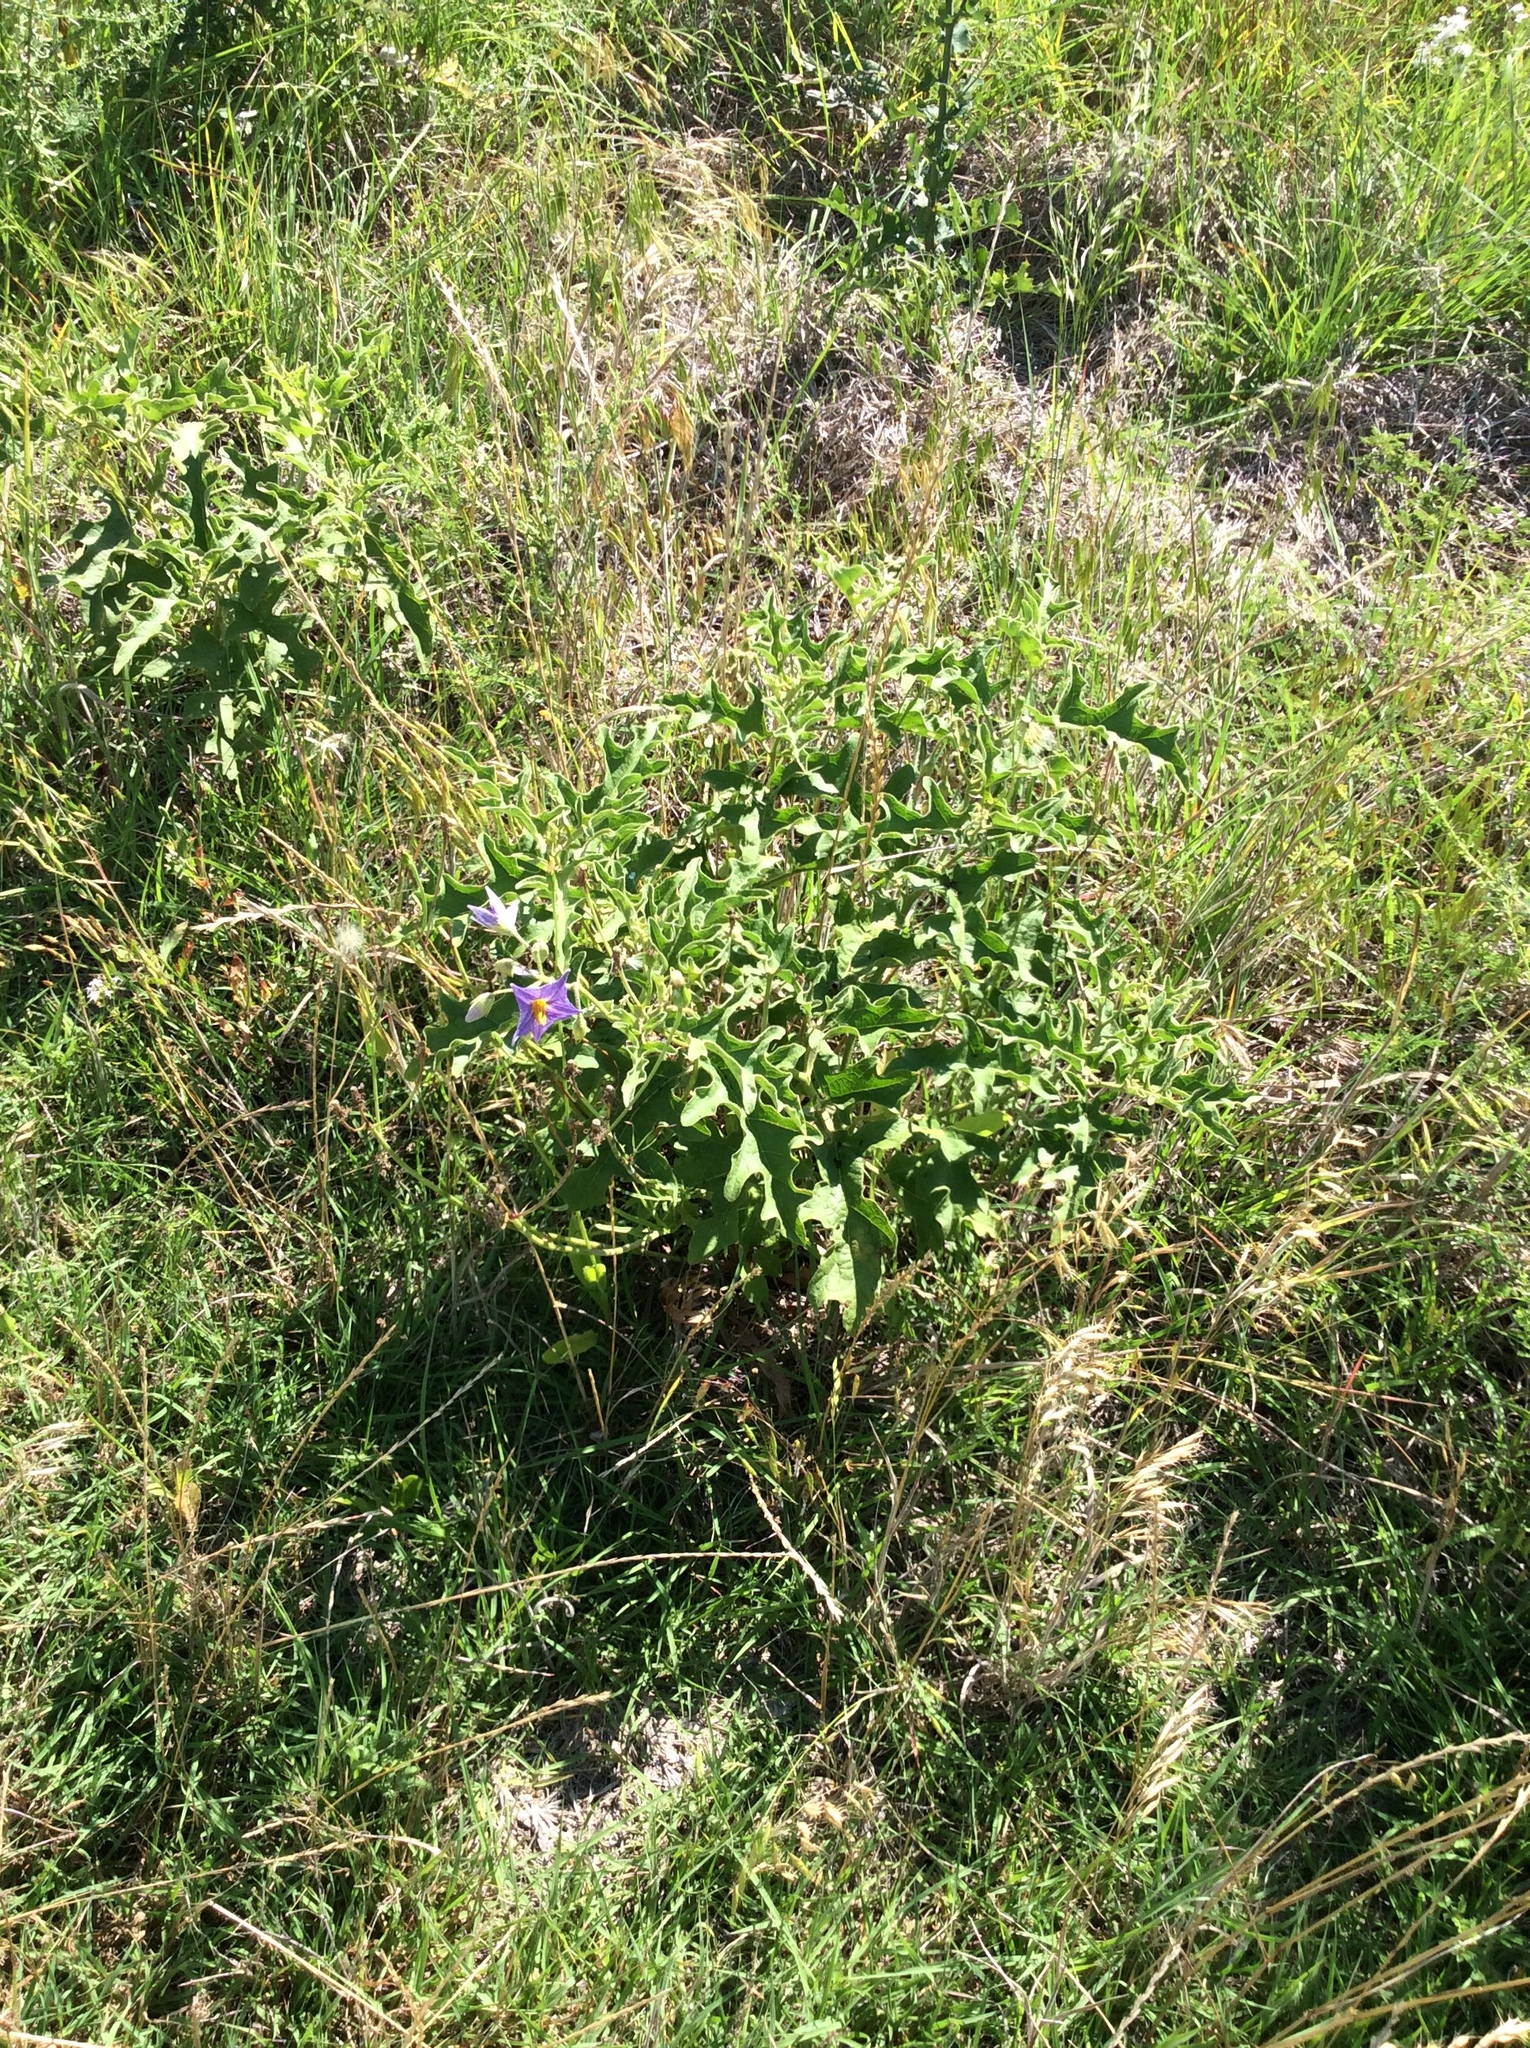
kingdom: Plantae
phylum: Tracheophyta
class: Magnoliopsida
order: Solanales
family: Solanaceae
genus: Solanum
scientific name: Solanum dimidiatum
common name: Carolina horse-nettle
